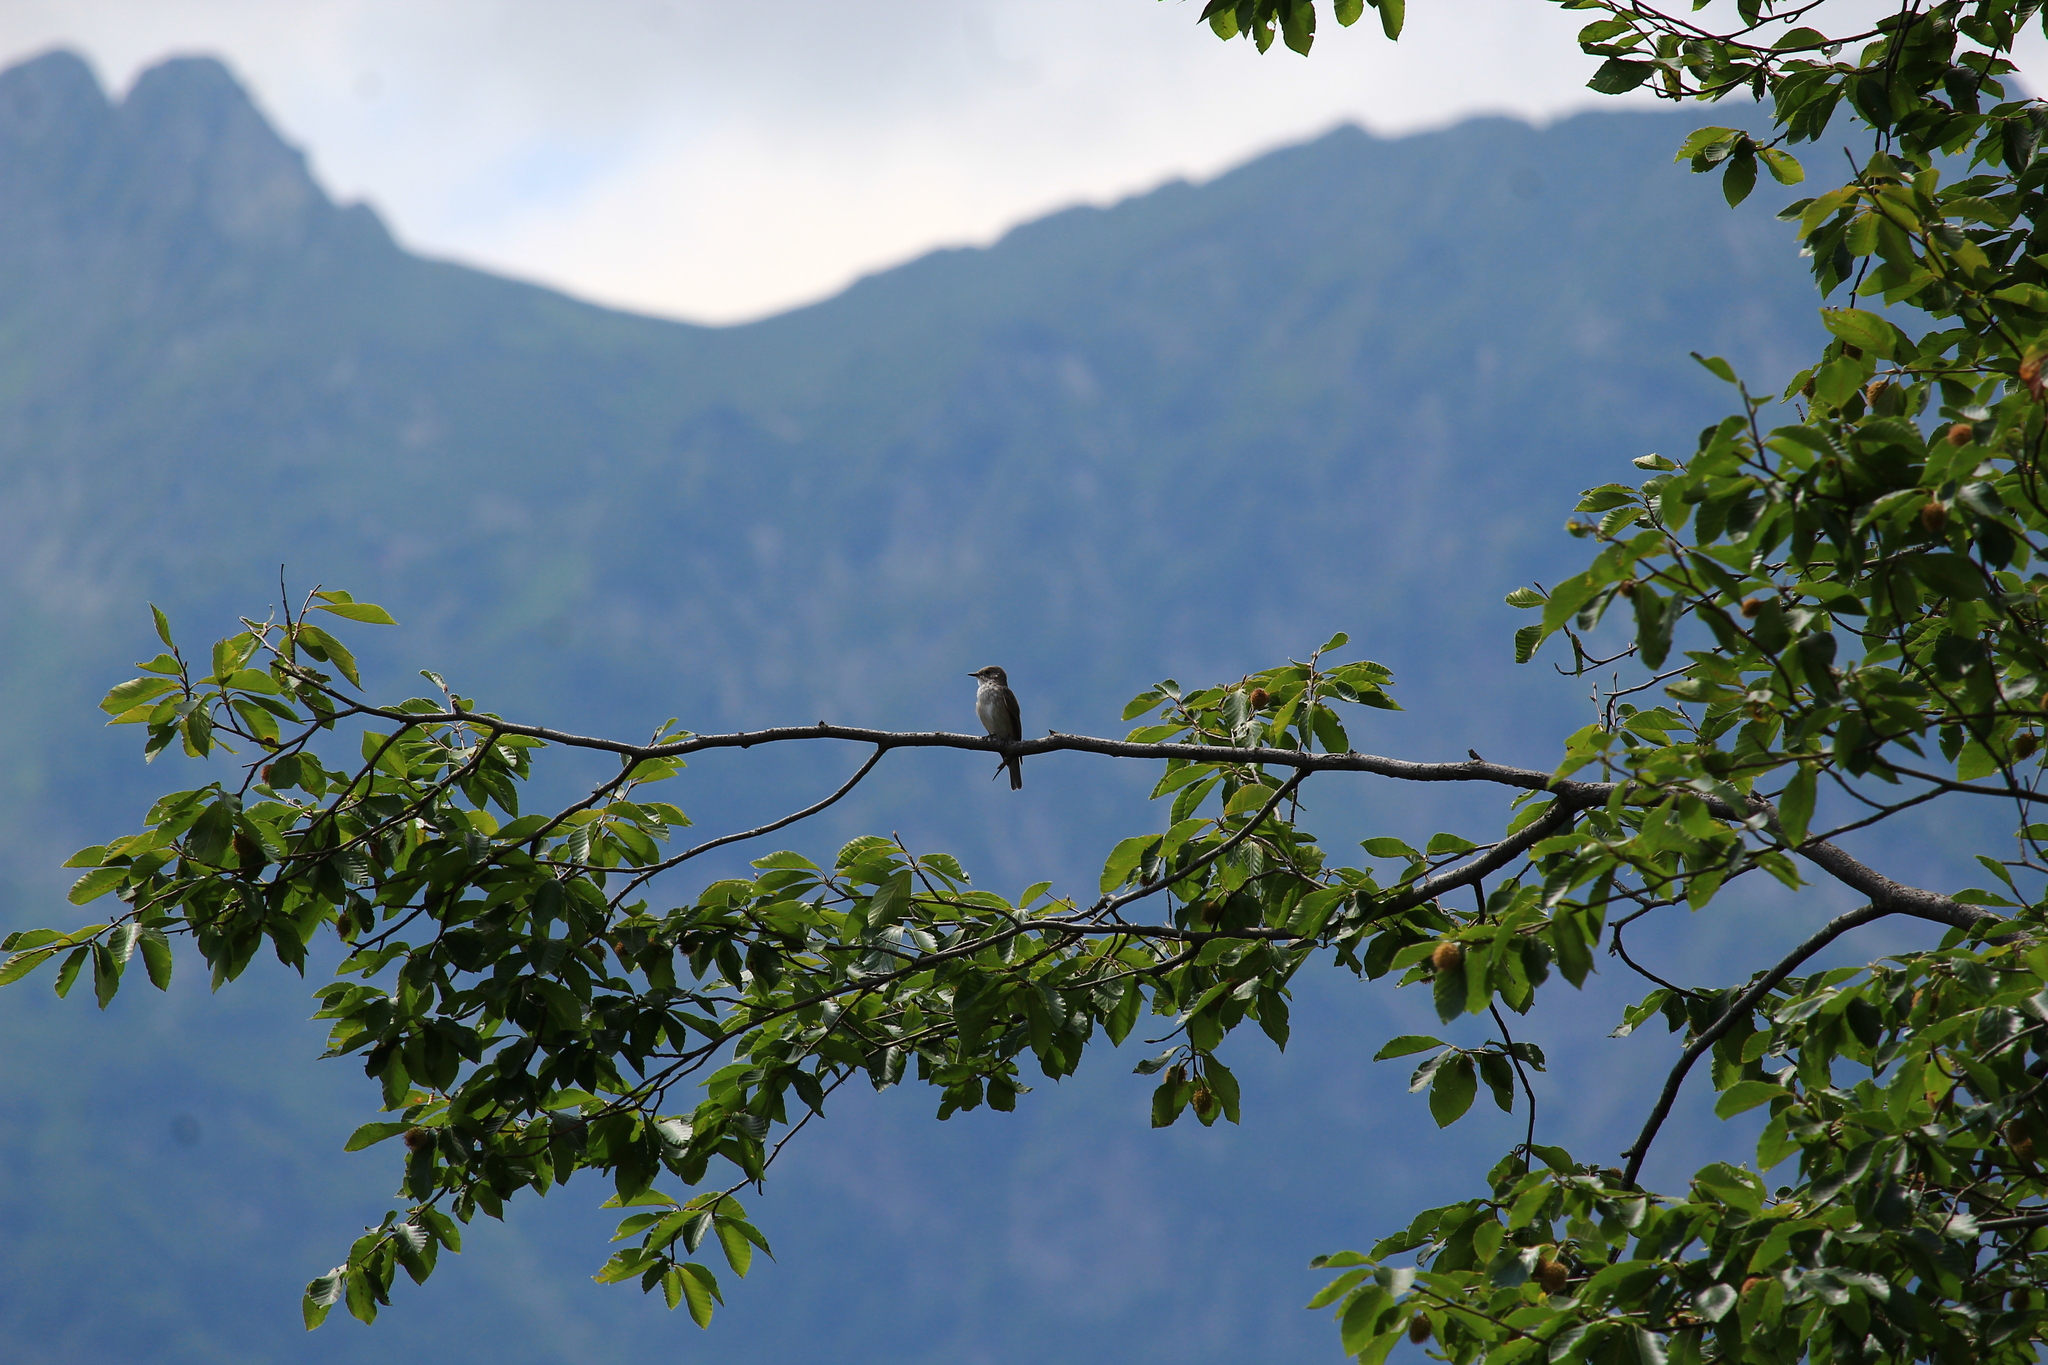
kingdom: Animalia
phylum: Chordata
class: Aves
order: Passeriformes
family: Muscicapidae
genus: Muscicapa
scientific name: Muscicapa striata
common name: Spotted flycatcher
